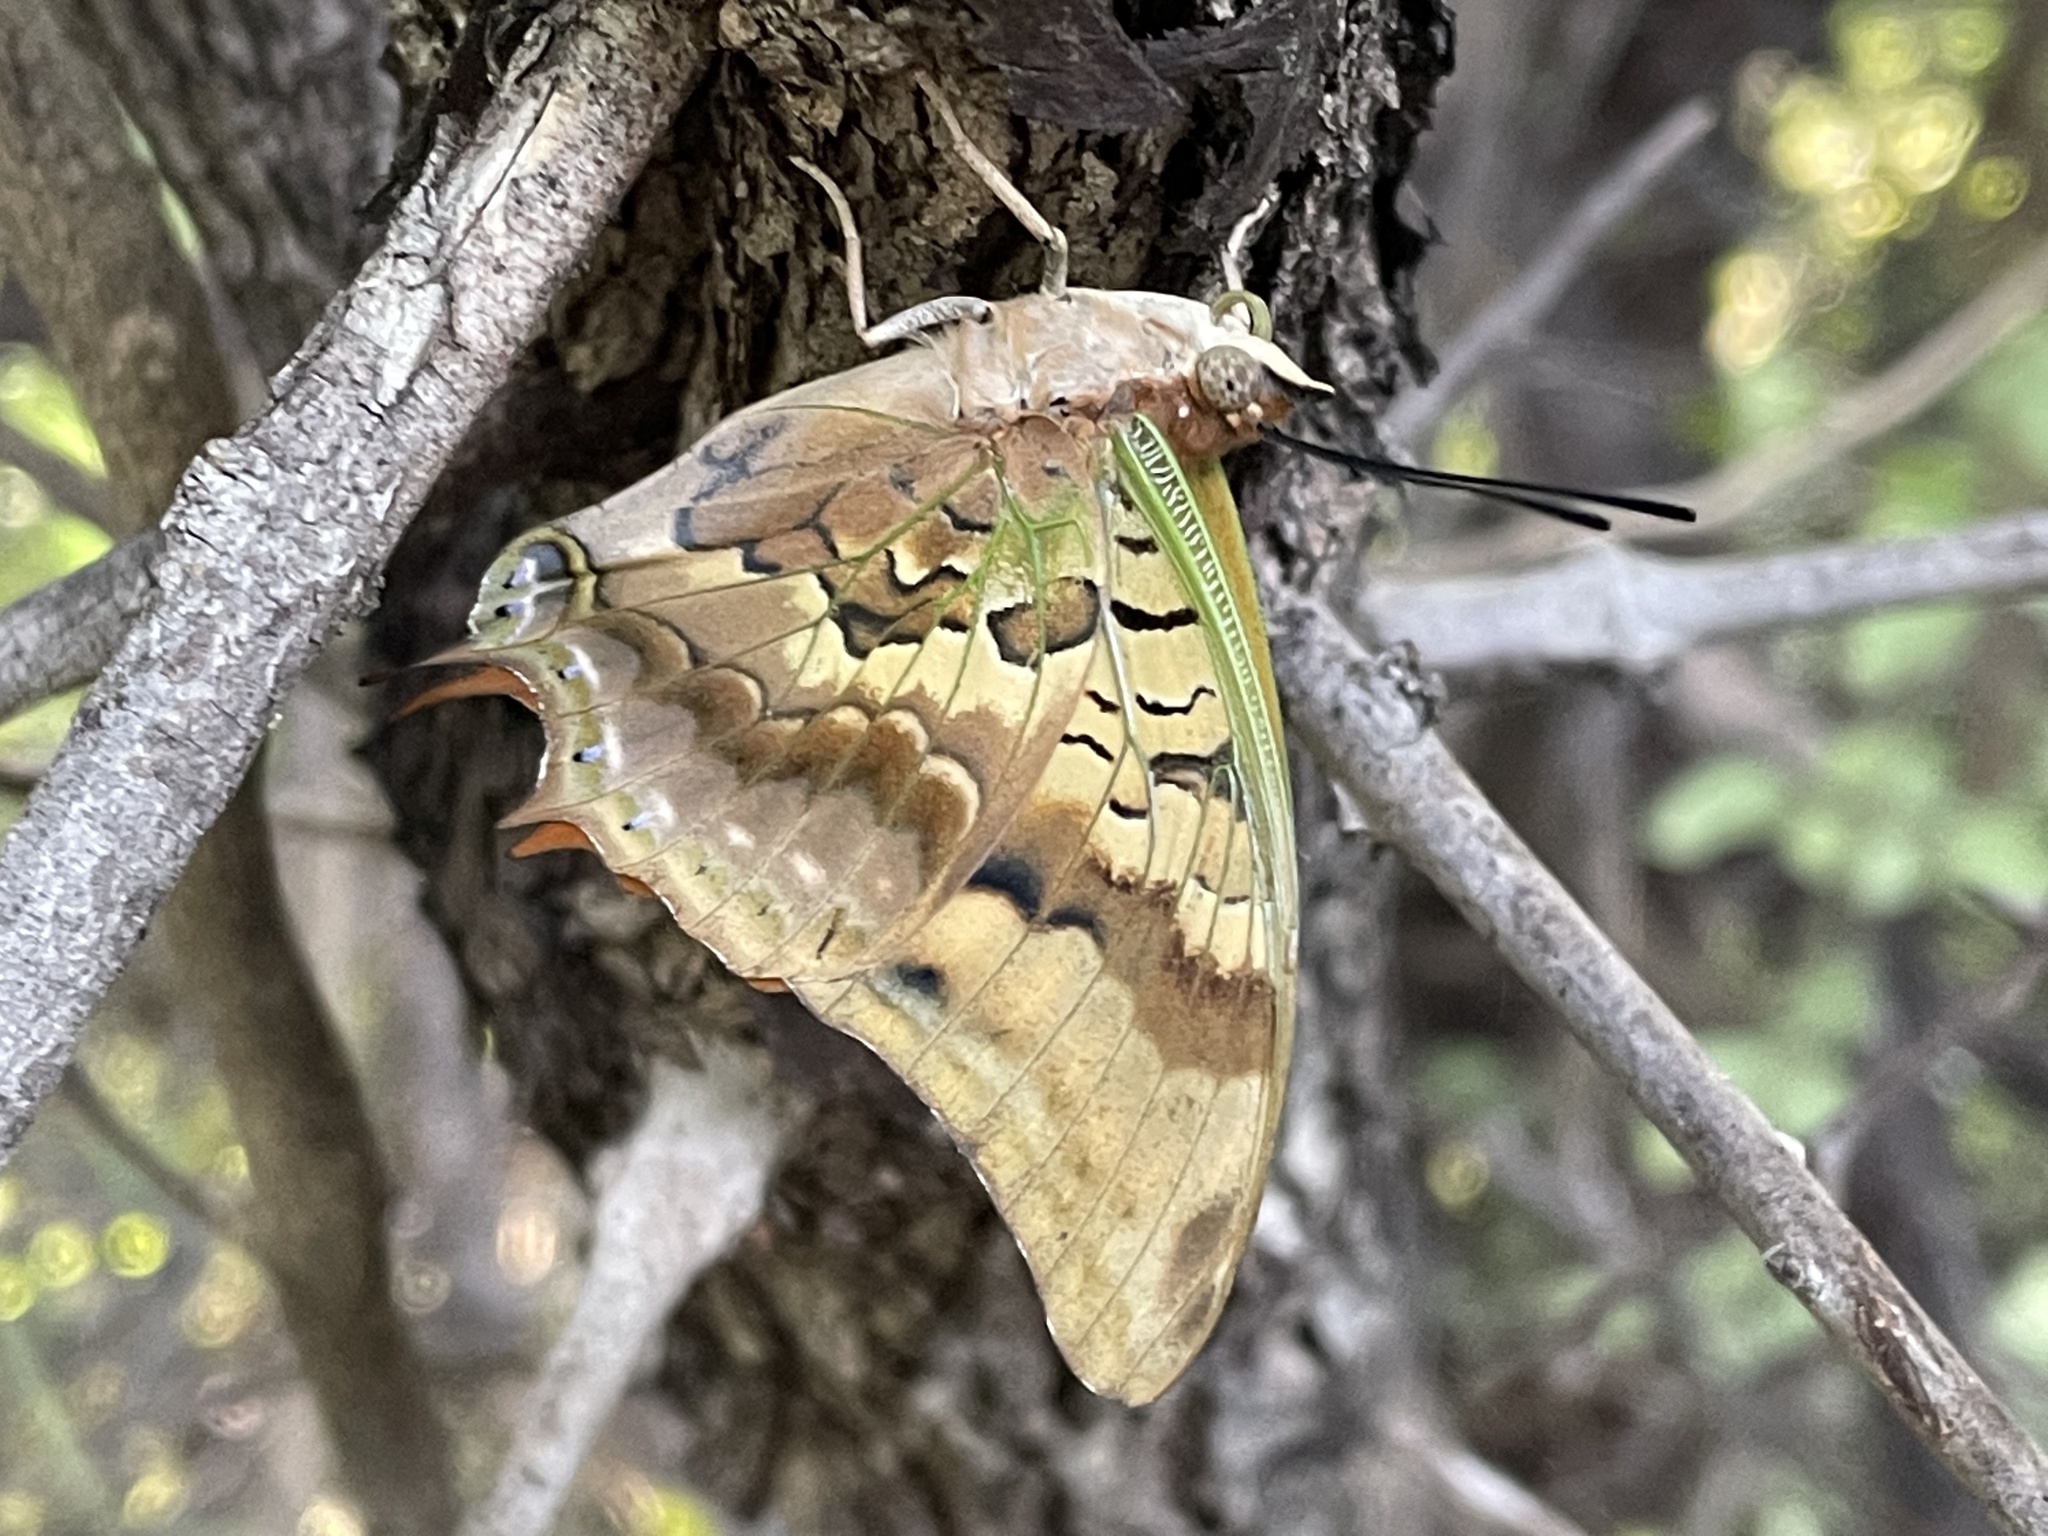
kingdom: Animalia
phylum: Arthropoda
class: Insecta
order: Lepidoptera
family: Nymphalidae
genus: Charaxes
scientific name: Charaxes candiope
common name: Green-veined charaxes
